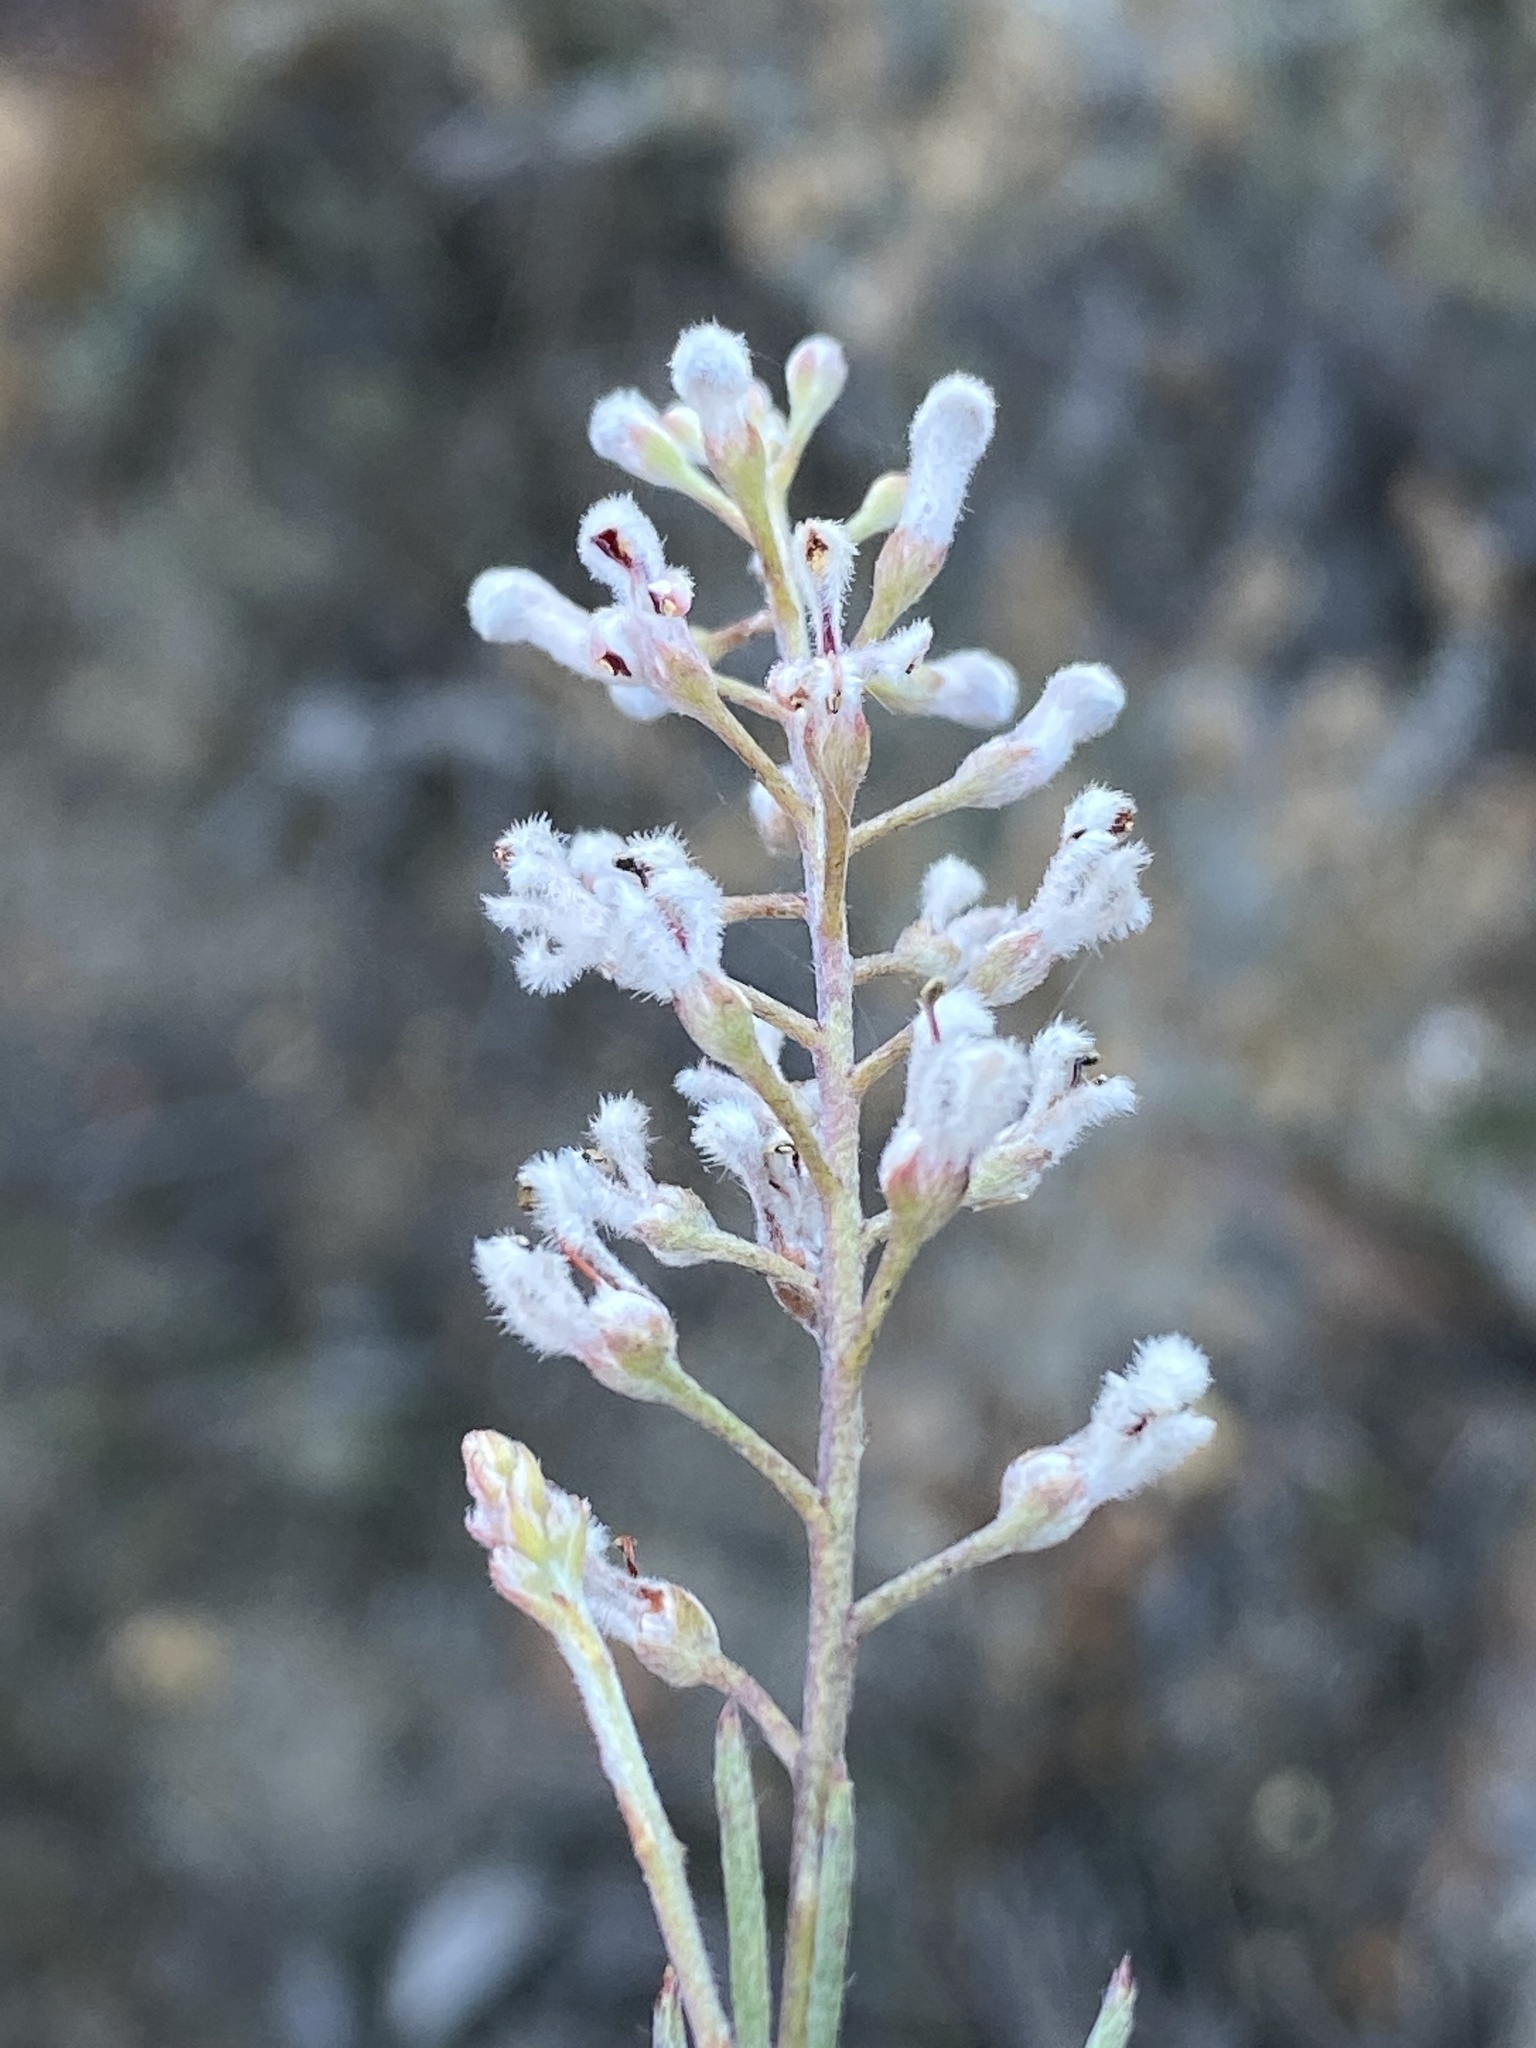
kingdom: Plantae
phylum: Tracheophyta
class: Magnoliopsida
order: Proteales
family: Proteaceae
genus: Spatalla
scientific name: Spatalla racemosa
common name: Lax-stalked spoon
